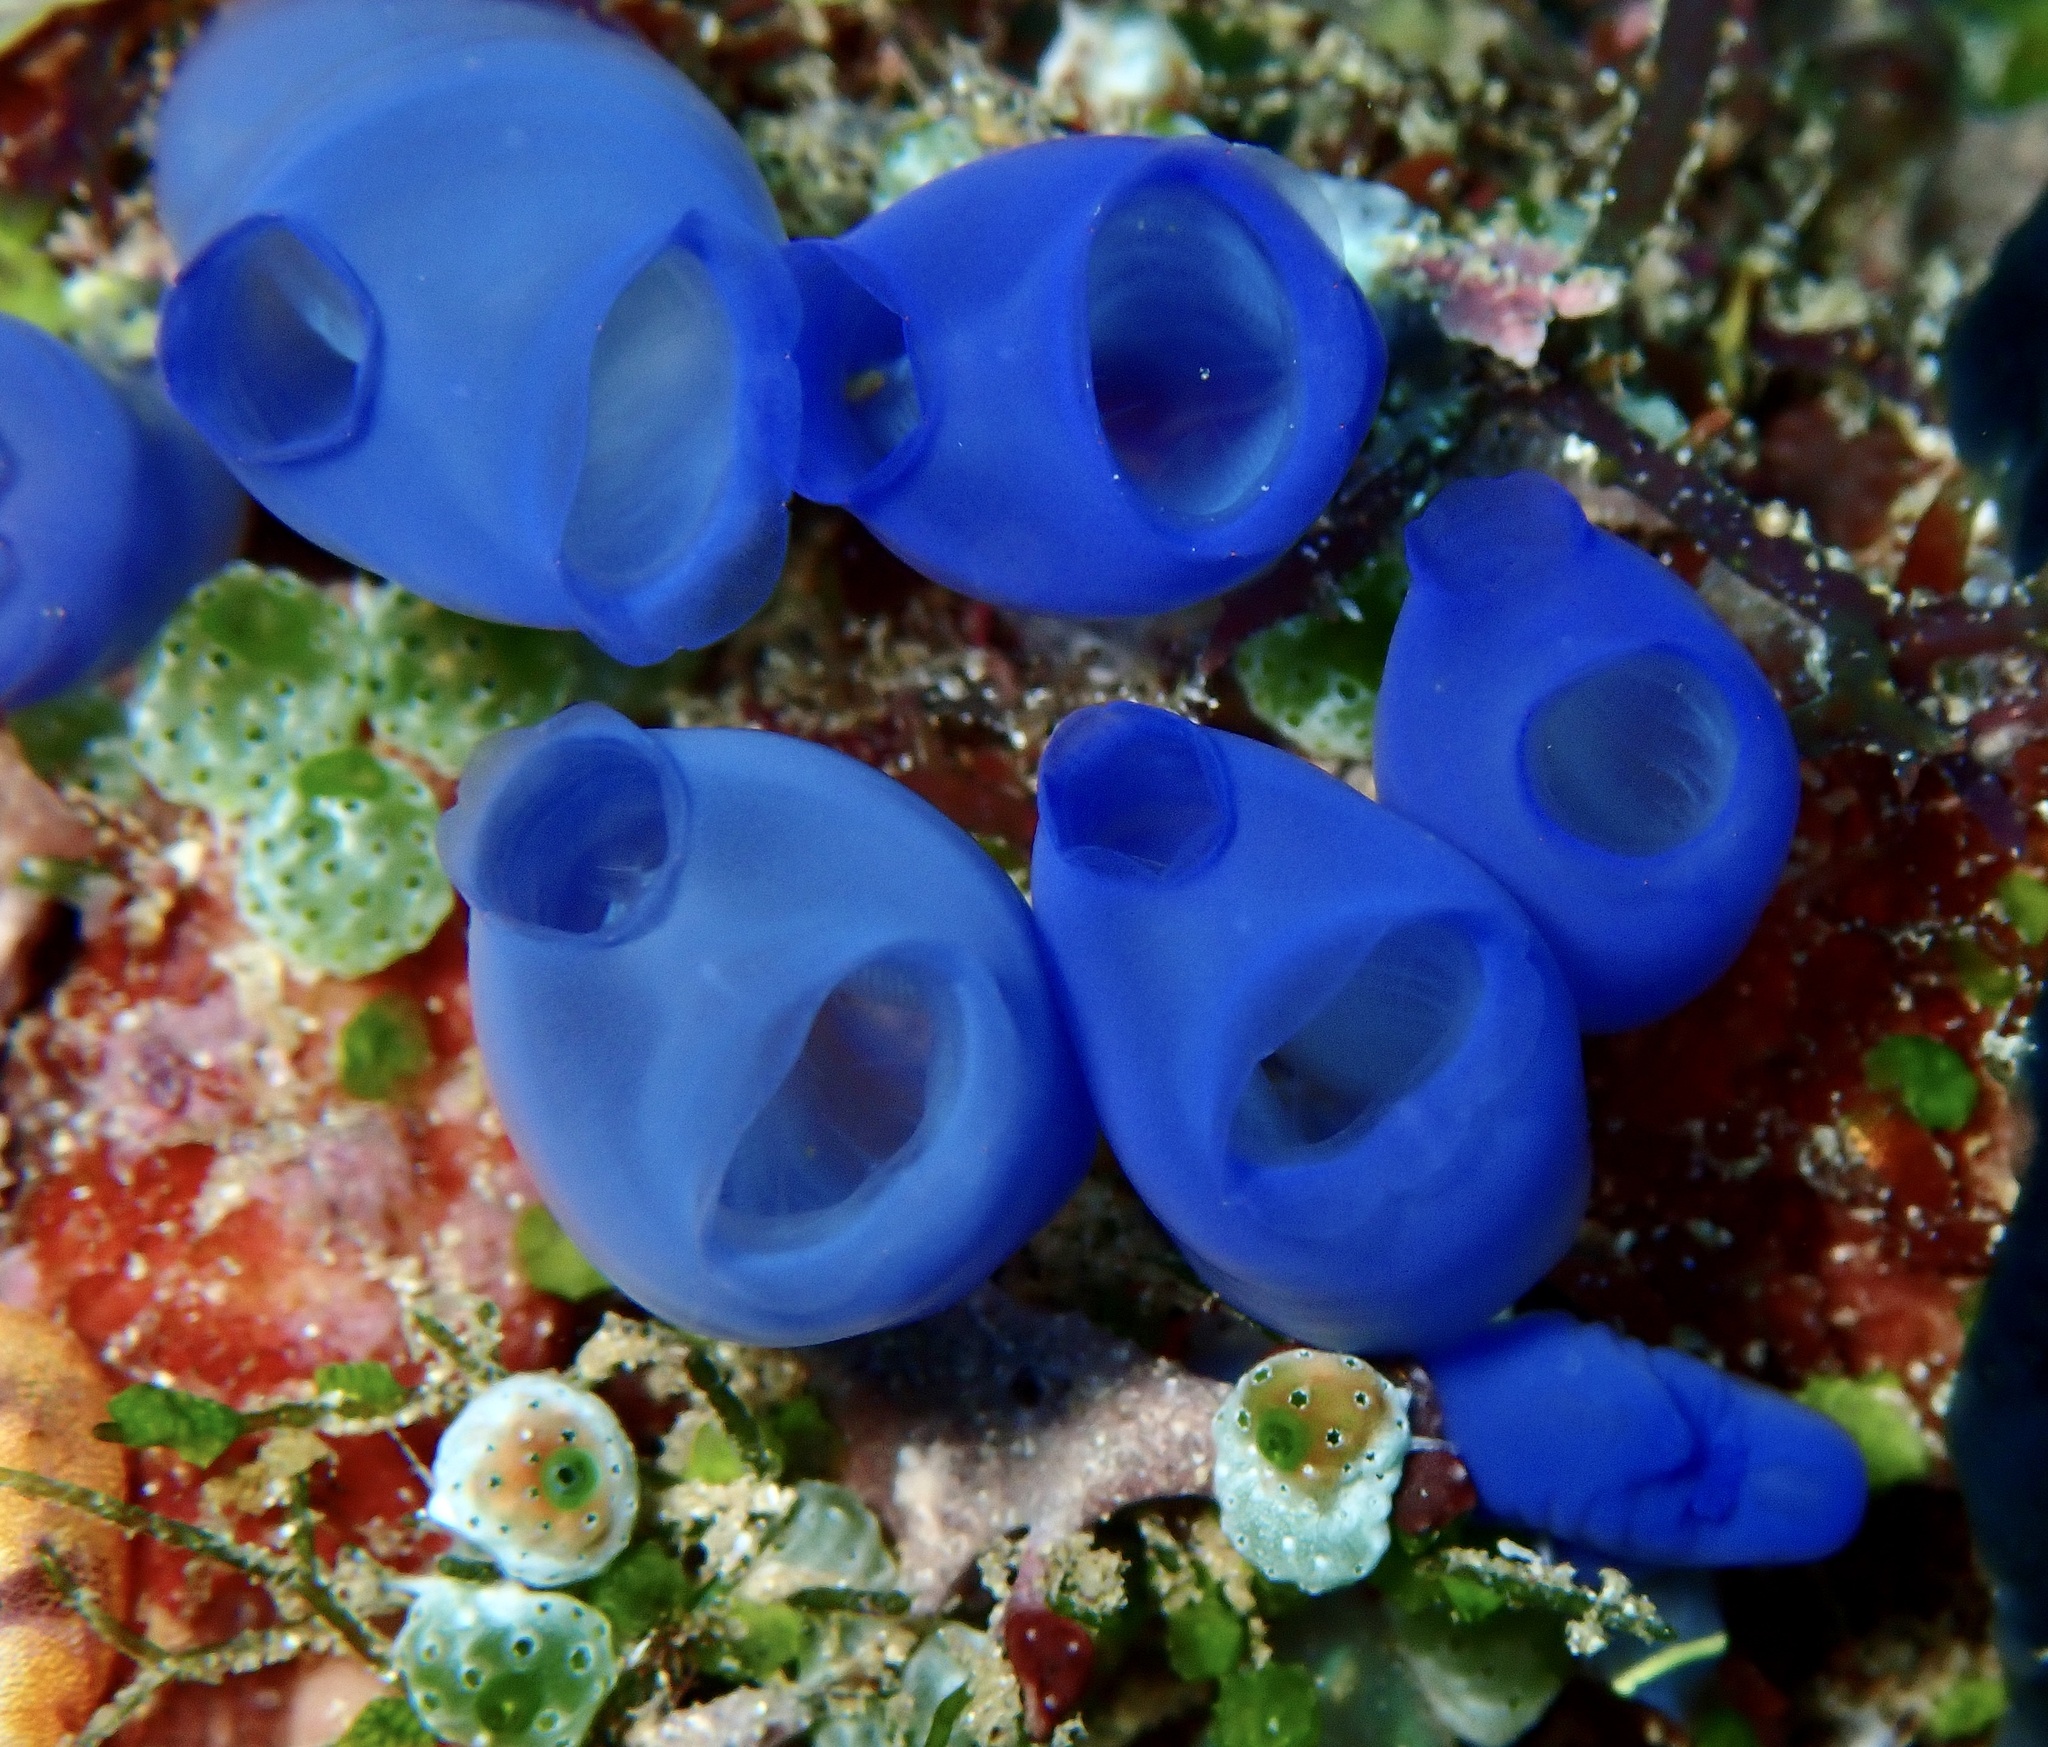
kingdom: Animalia
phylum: Chordata
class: Ascidiacea
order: Aplousobranchia
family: Diazonidae
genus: Rhopalaea
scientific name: Rhopalaea fusca
